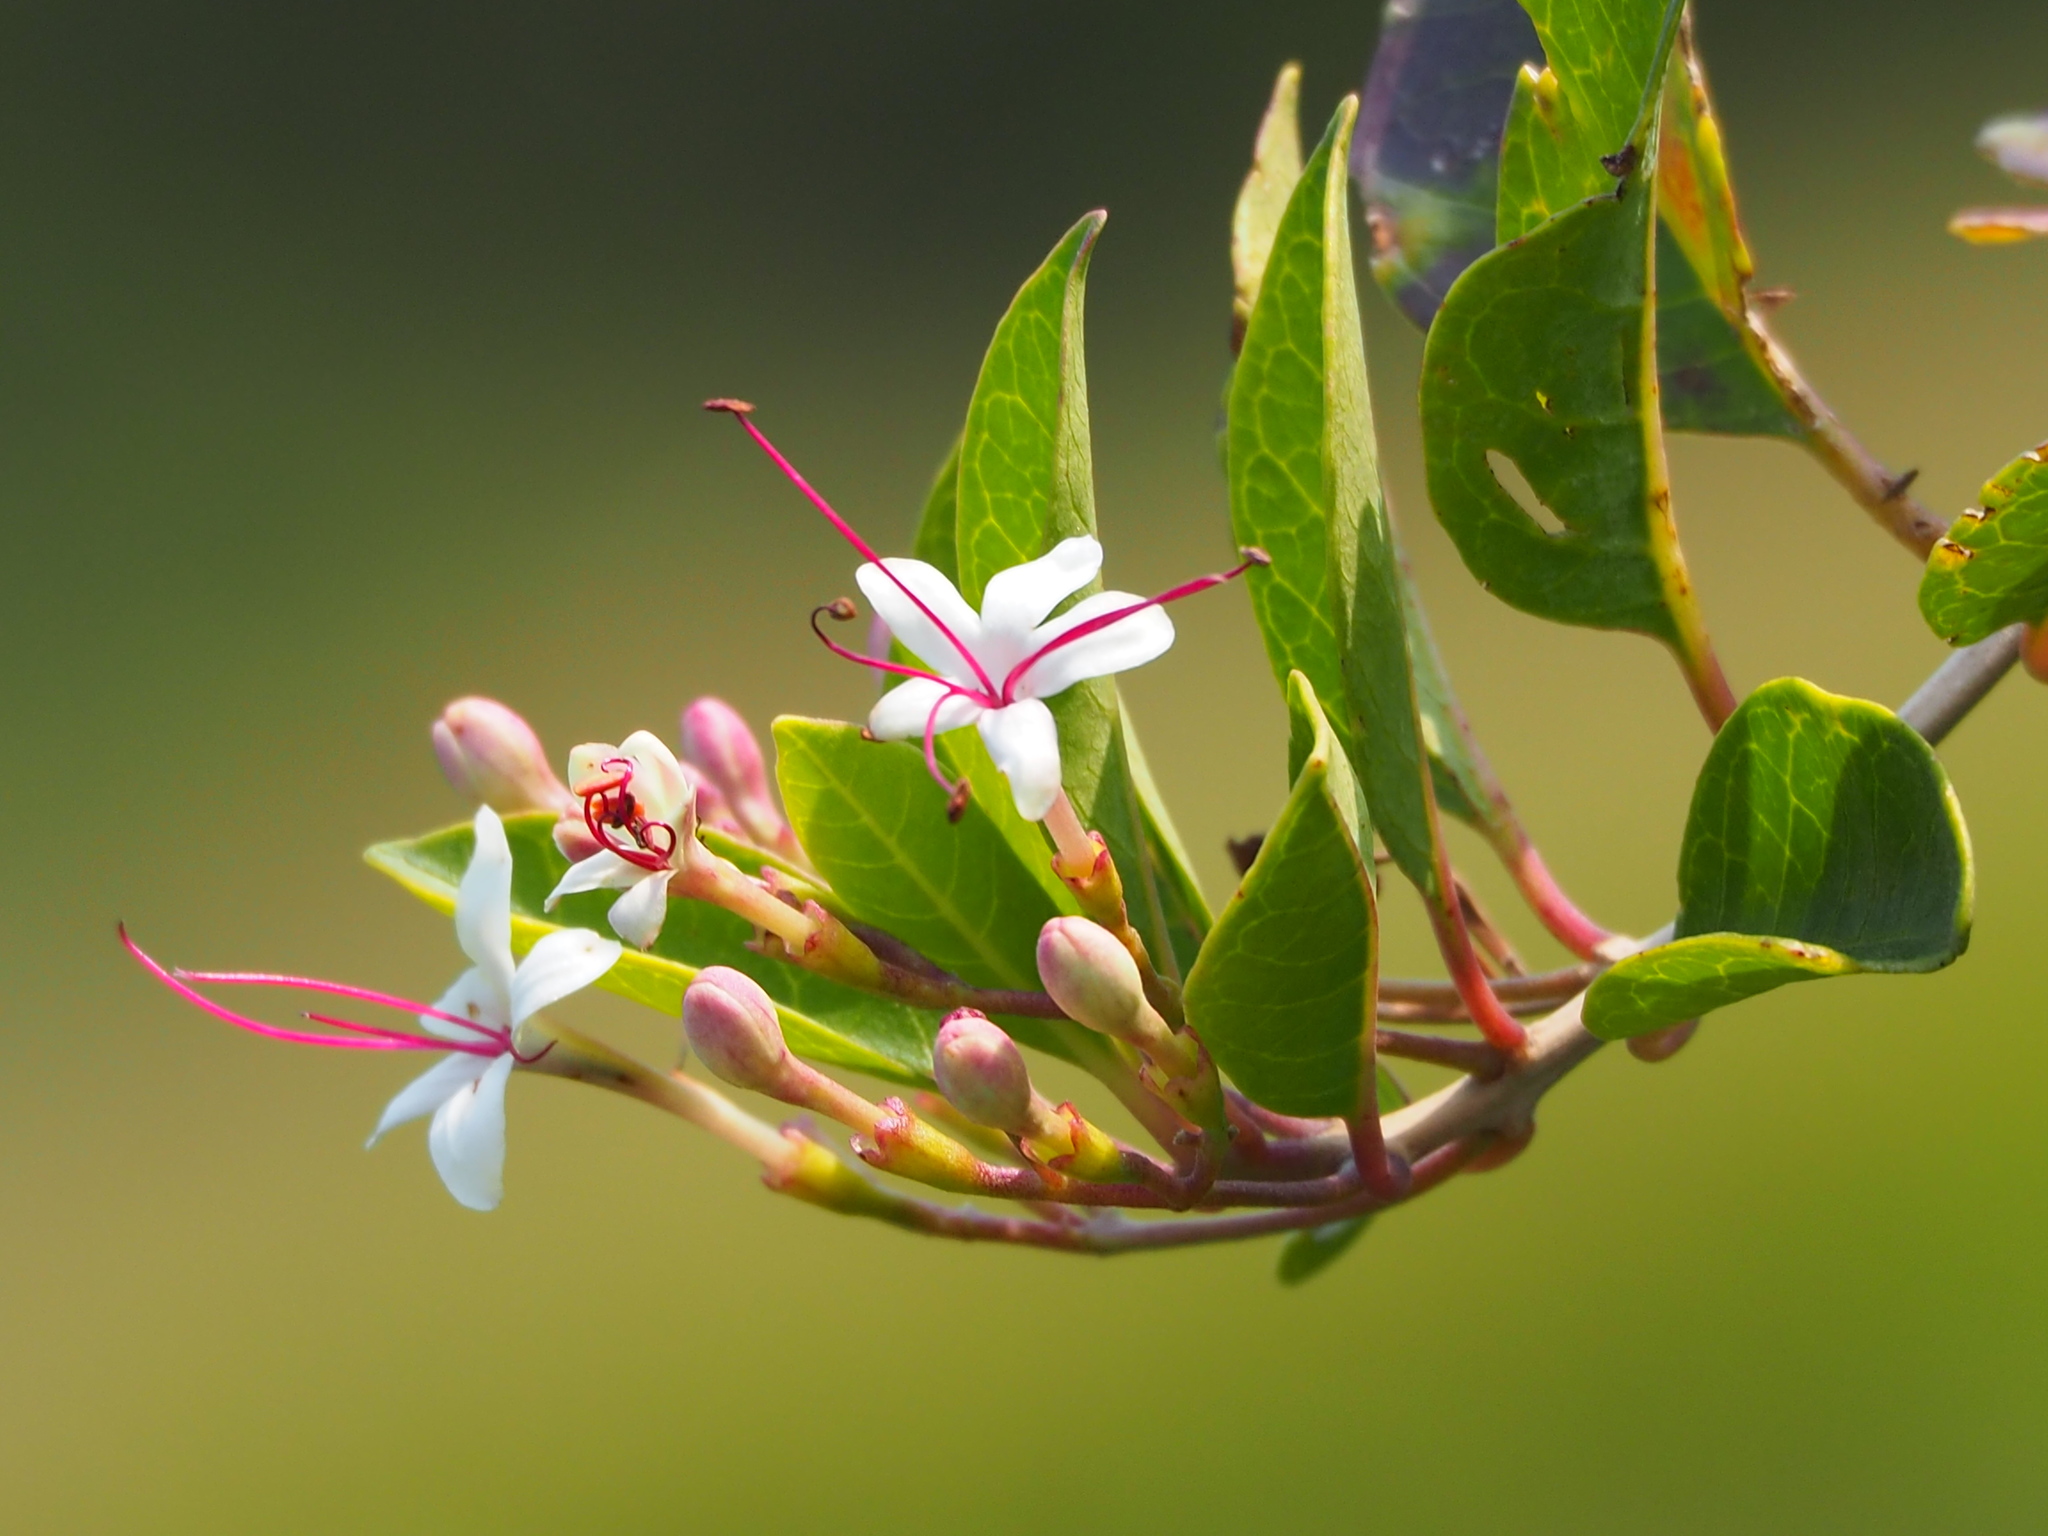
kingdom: Plantae
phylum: Tracheophyta
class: Magnoliopsida
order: Lamiales
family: Lamiaceae
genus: Volkameria
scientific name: Volkameria inermis
